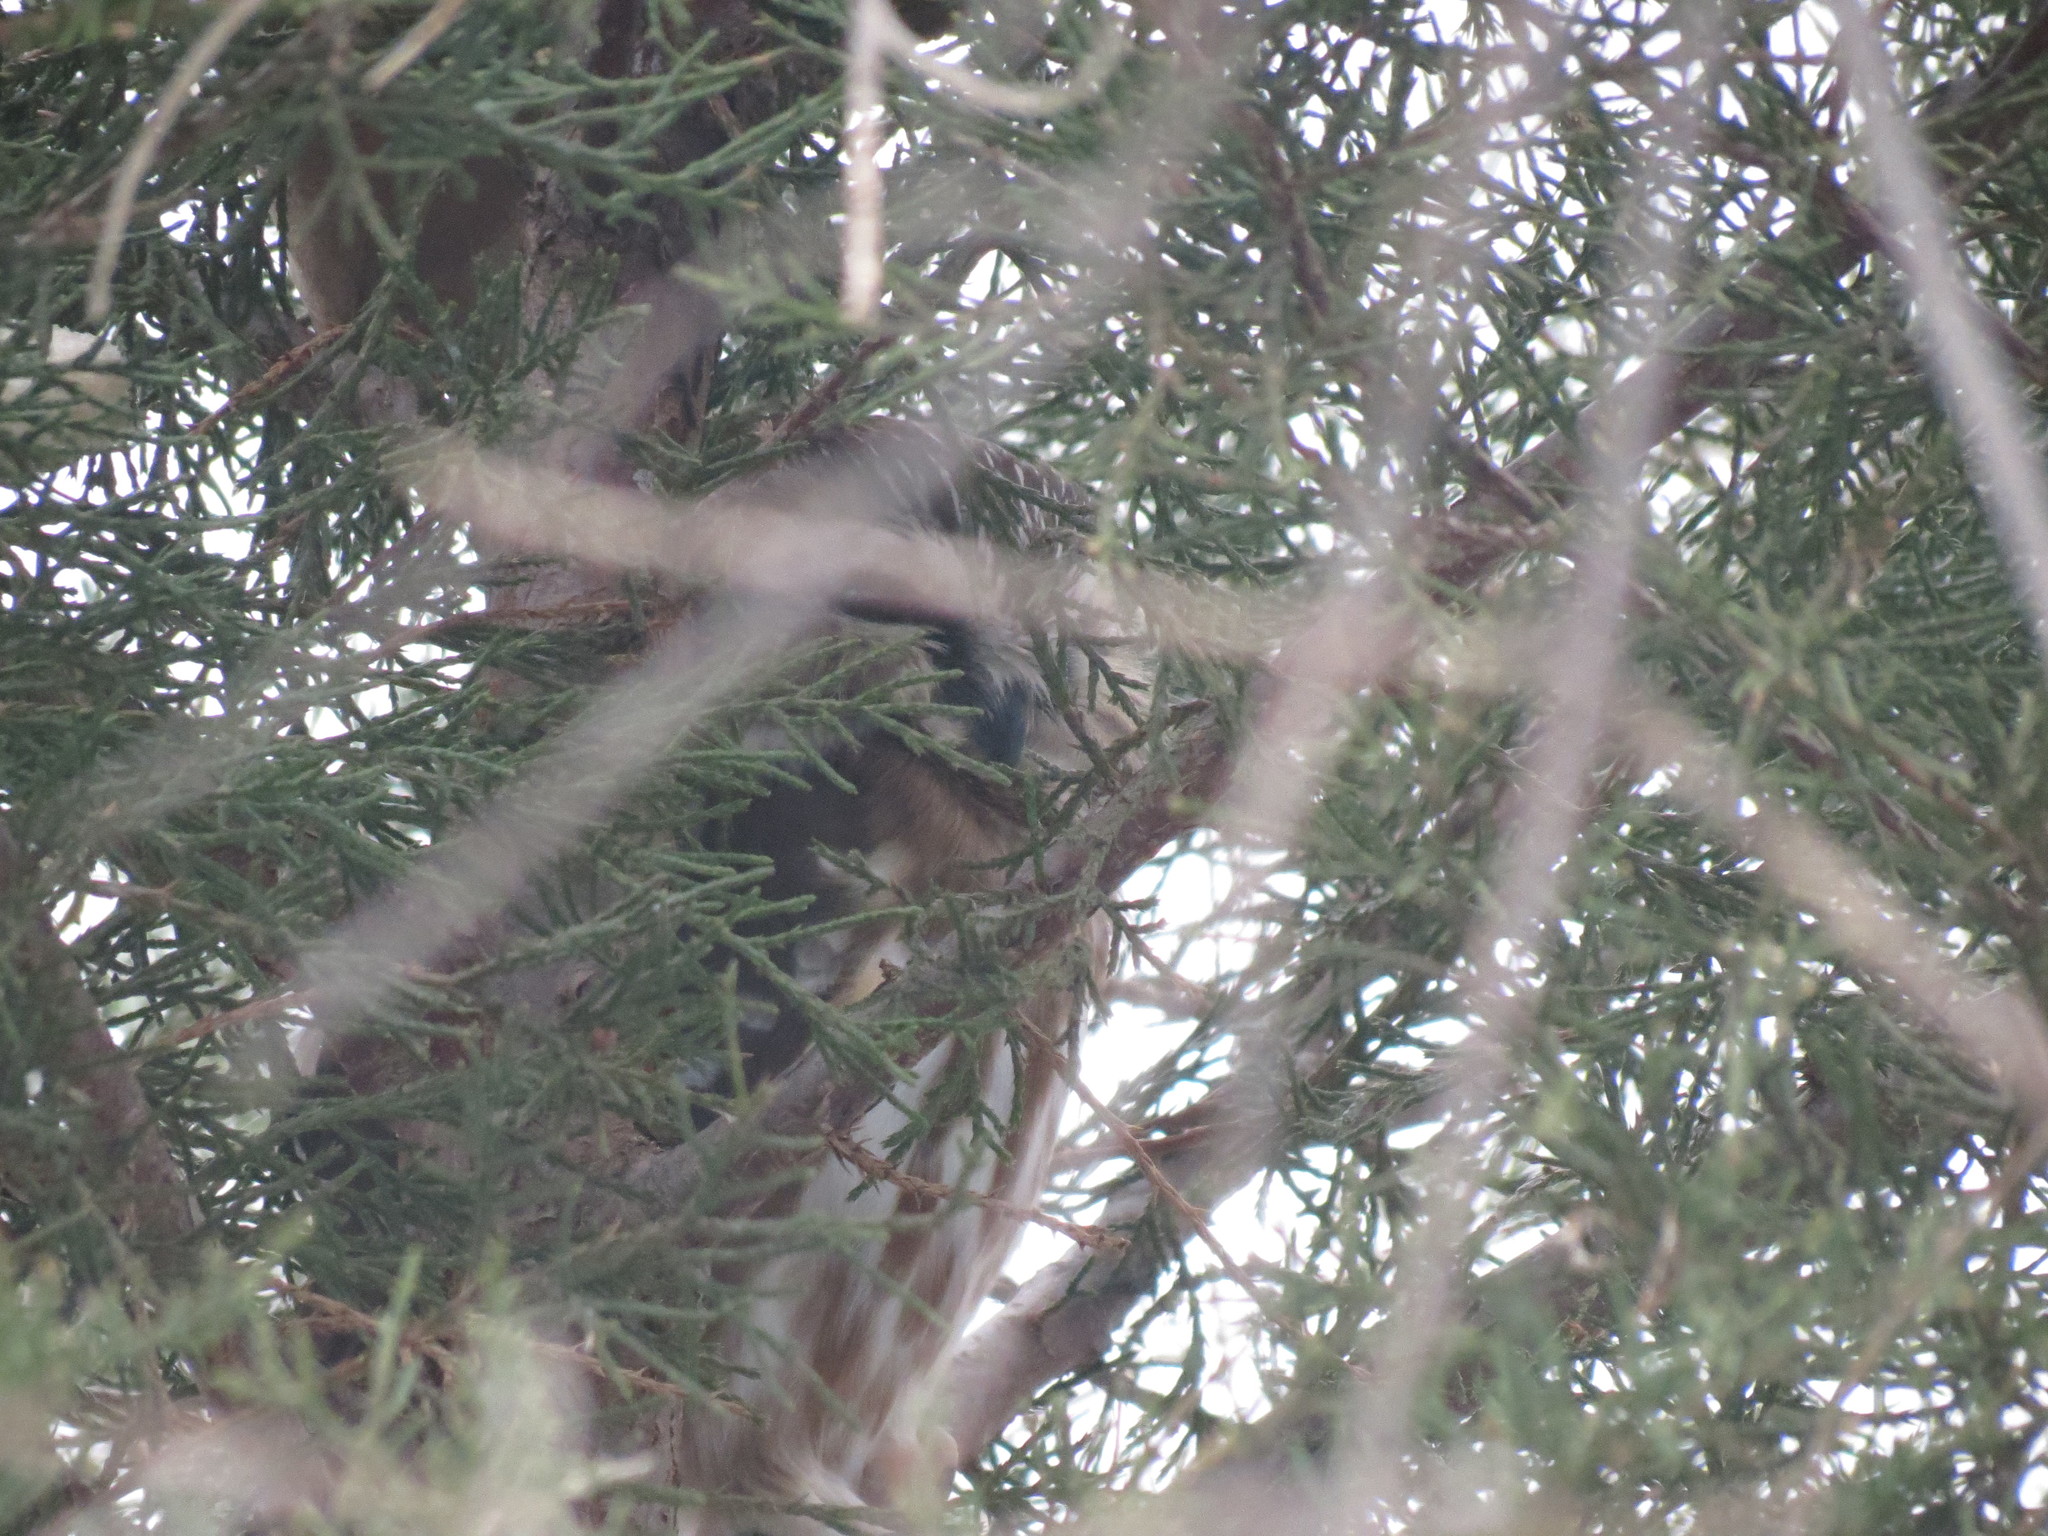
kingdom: Animalia
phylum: Chordata
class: Aves
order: Strigiformes
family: Strigidae
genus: Aegolius
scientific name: Aegolius acadicus
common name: Northern saw-whet owl
